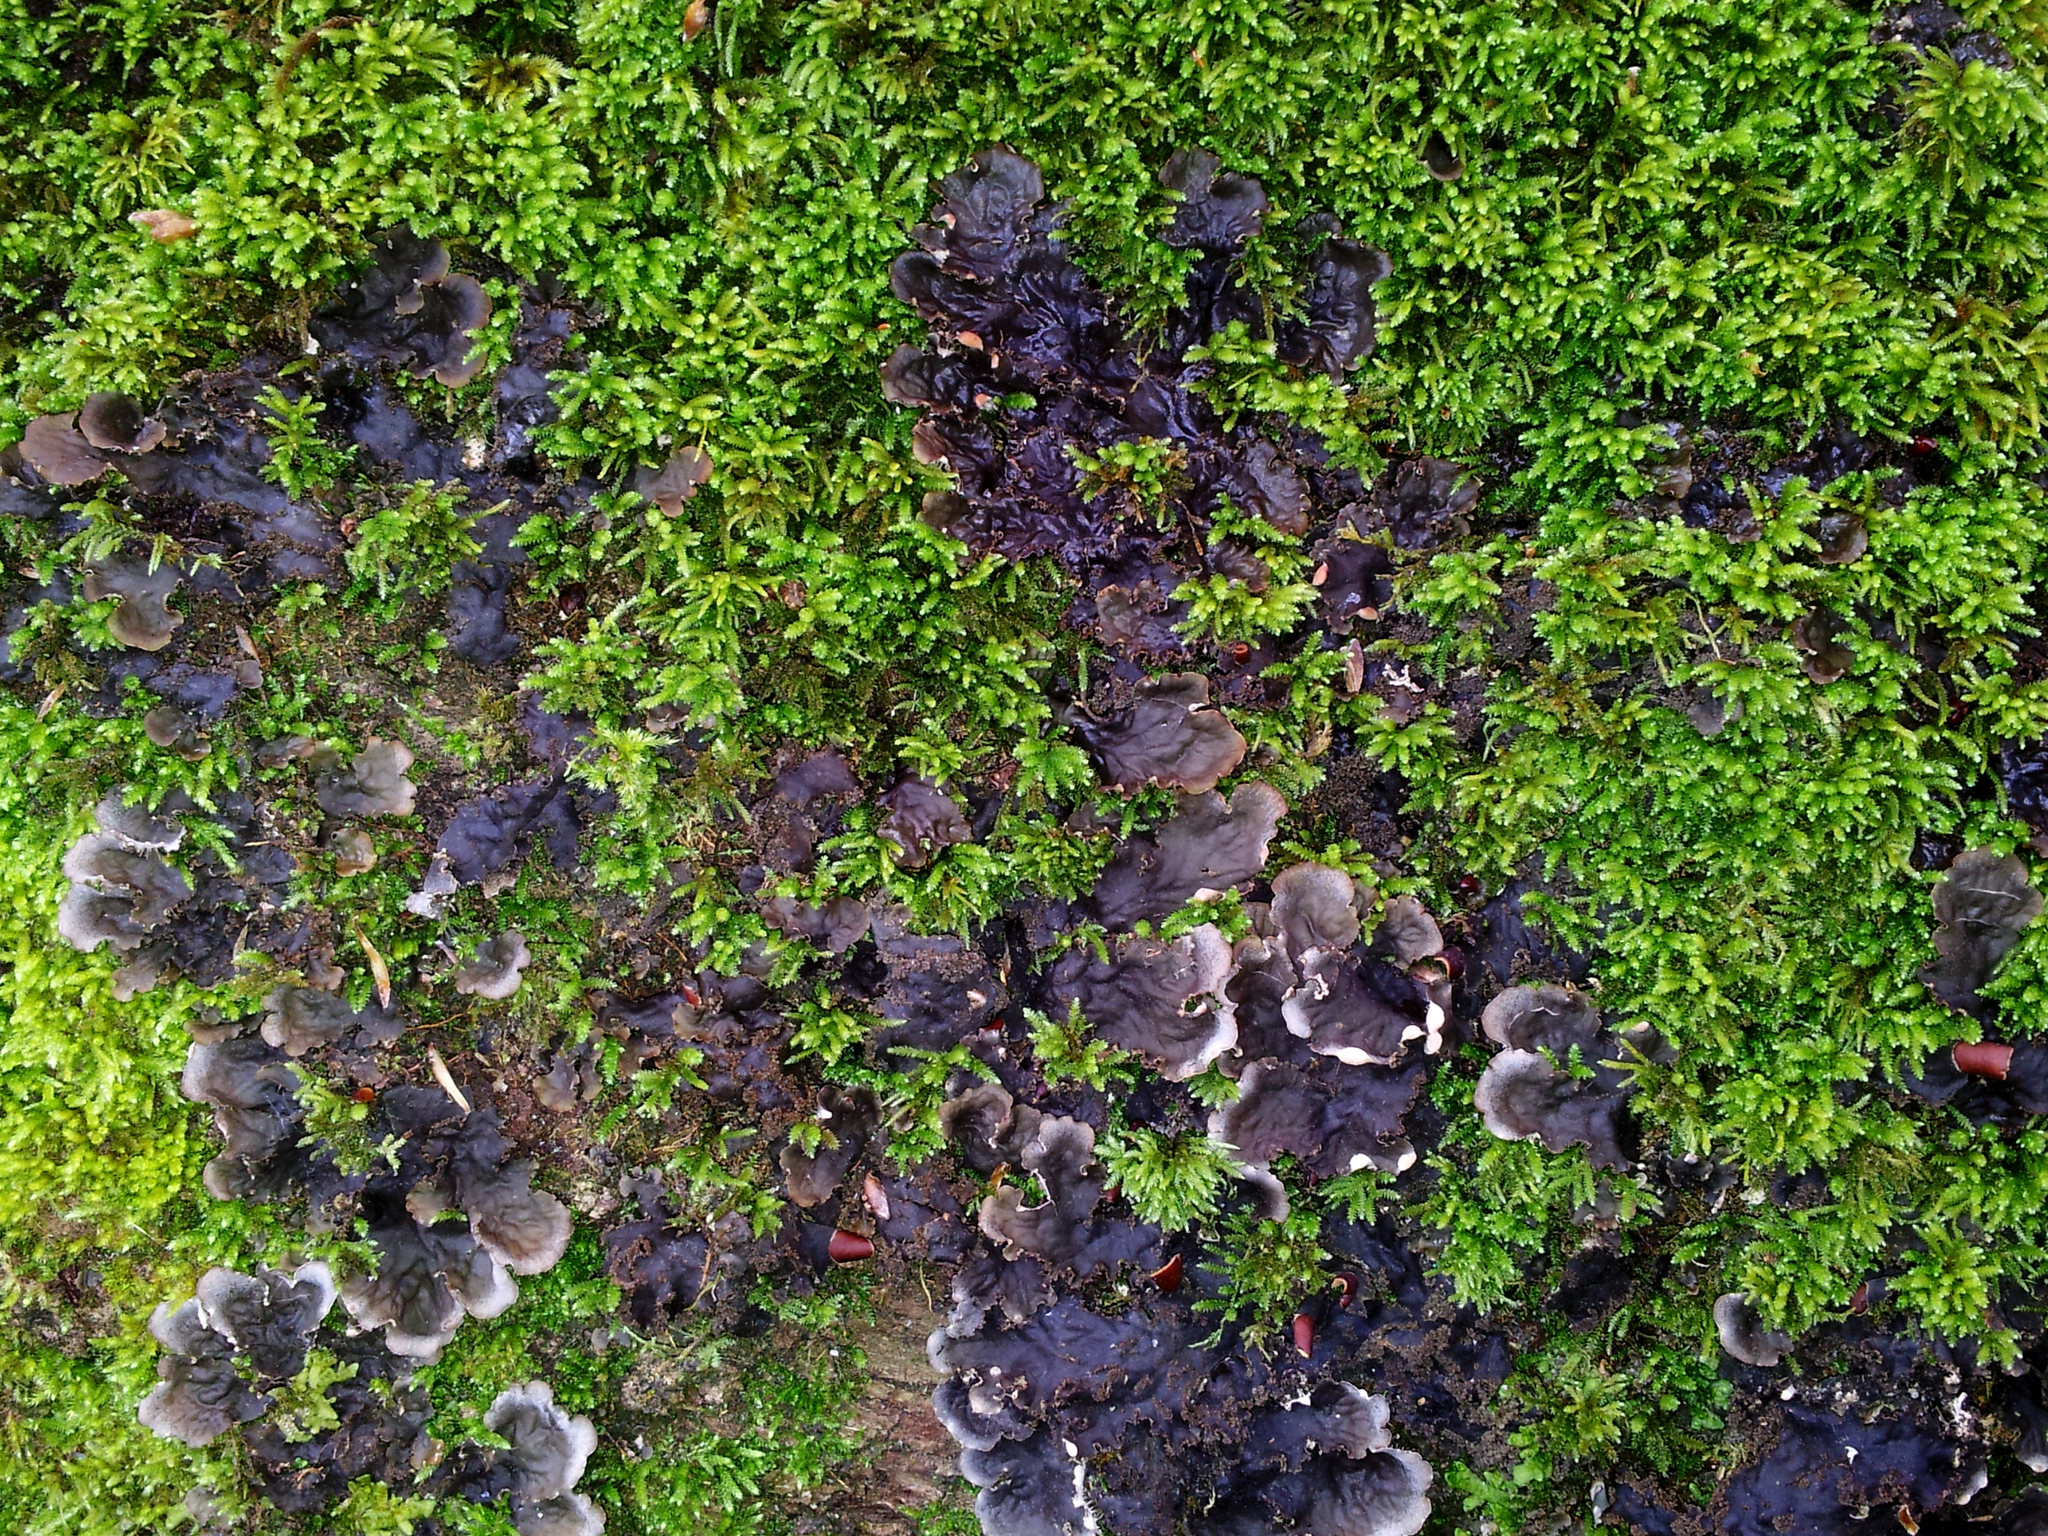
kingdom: Fungi
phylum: Ascomycota
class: Lecanoromycetes
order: Peltigerales
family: Peltigeraceae
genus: Peltigera
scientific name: Peltigera elisabethae
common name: Concentric pelt lichen
